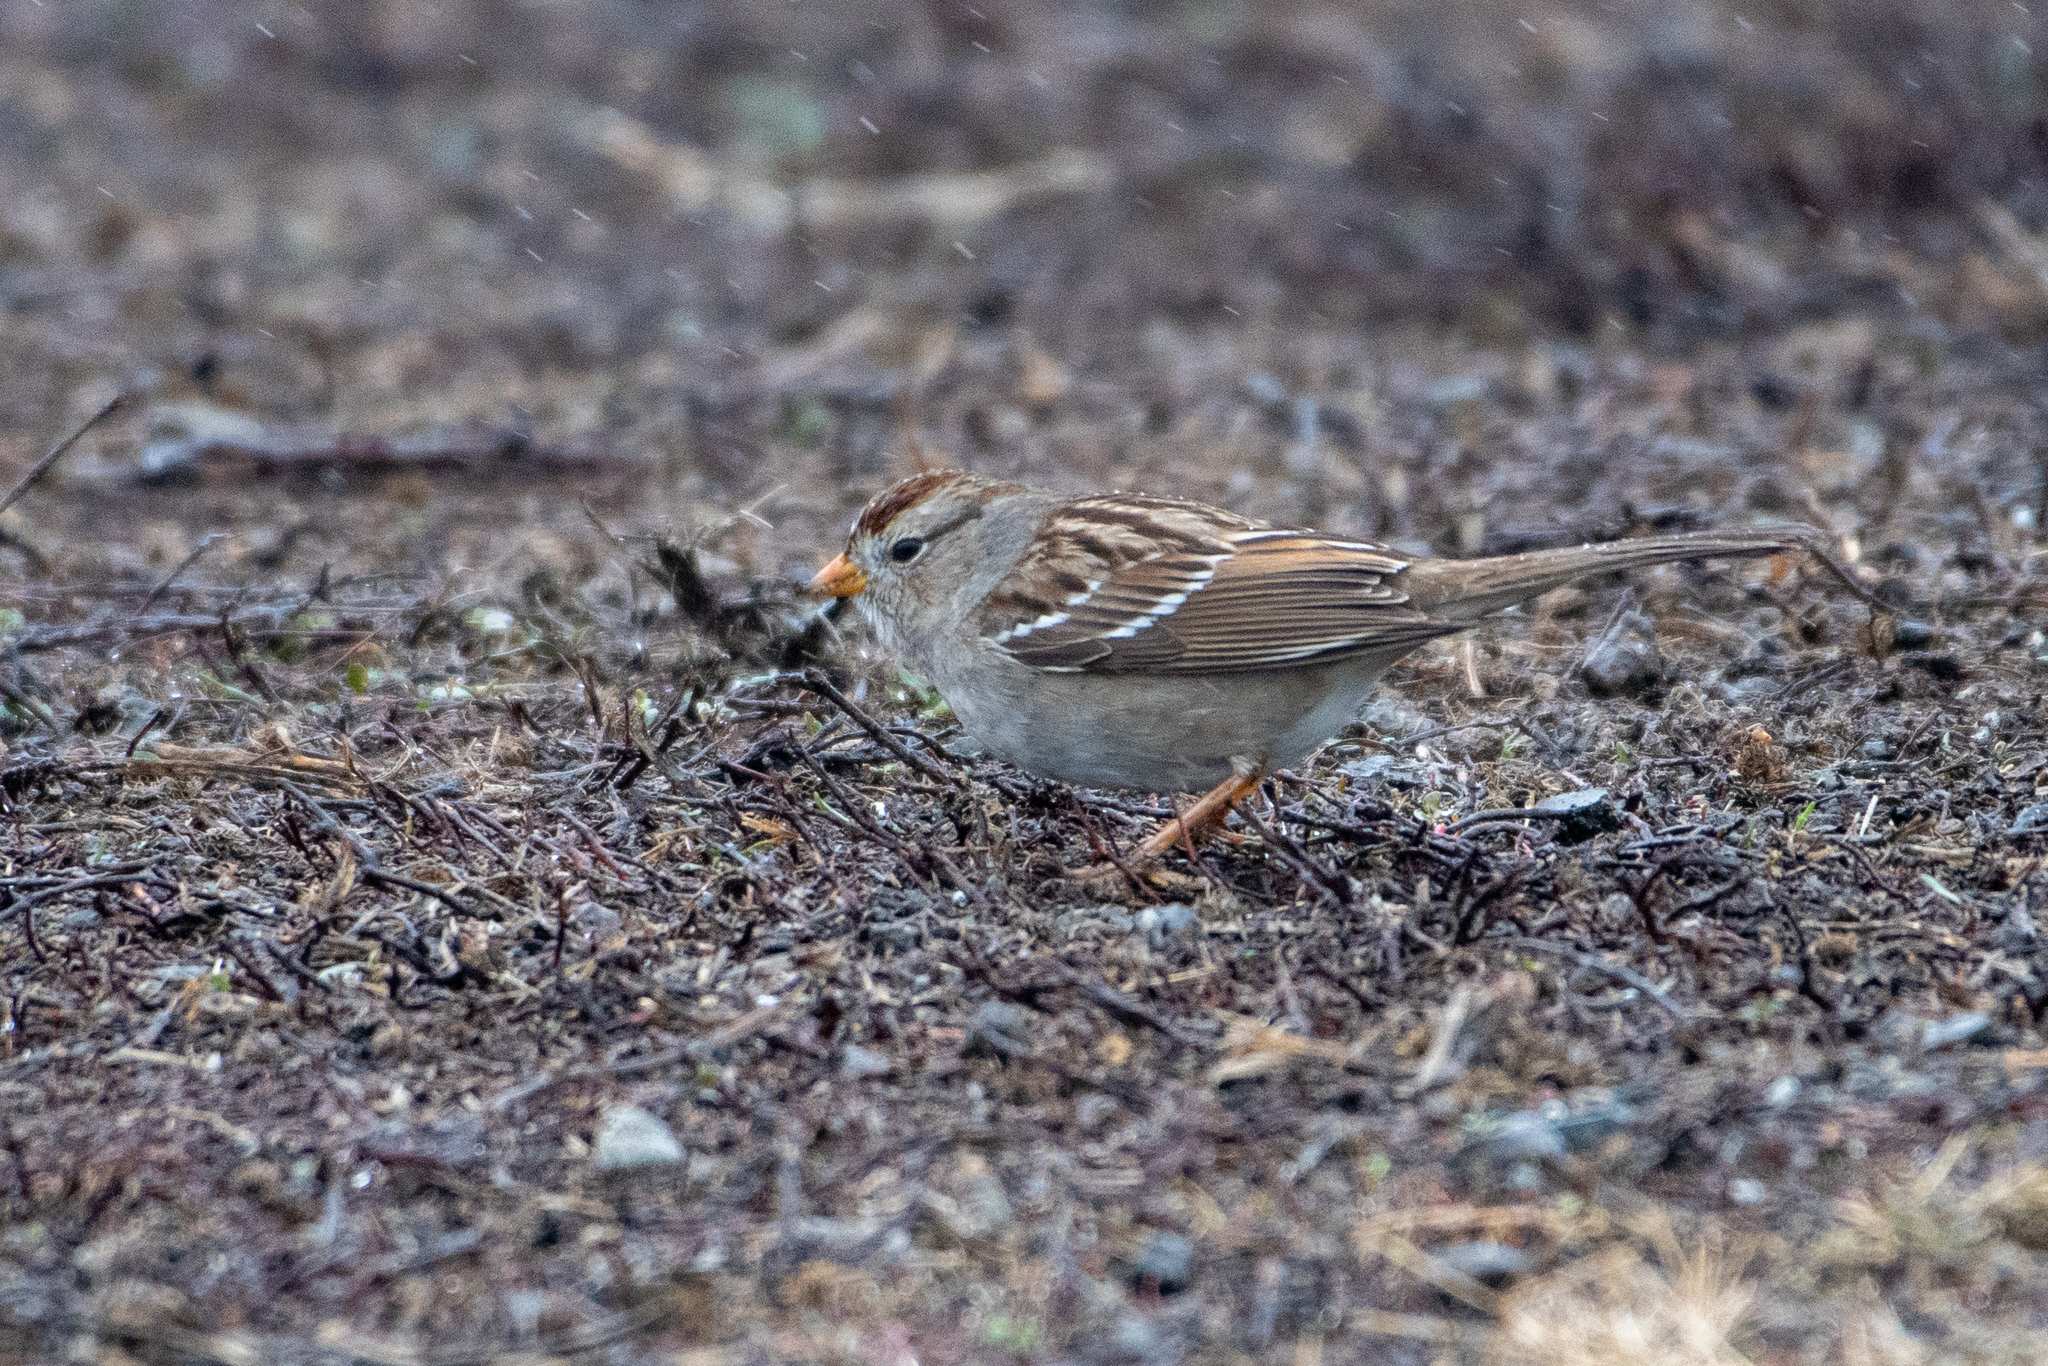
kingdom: Animalia
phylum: Chordata
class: Aves
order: Passeriformes
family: Passerellidae
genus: Zonotrichia
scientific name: Zonotrichia leucophrys
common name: White-crowned sparrow
